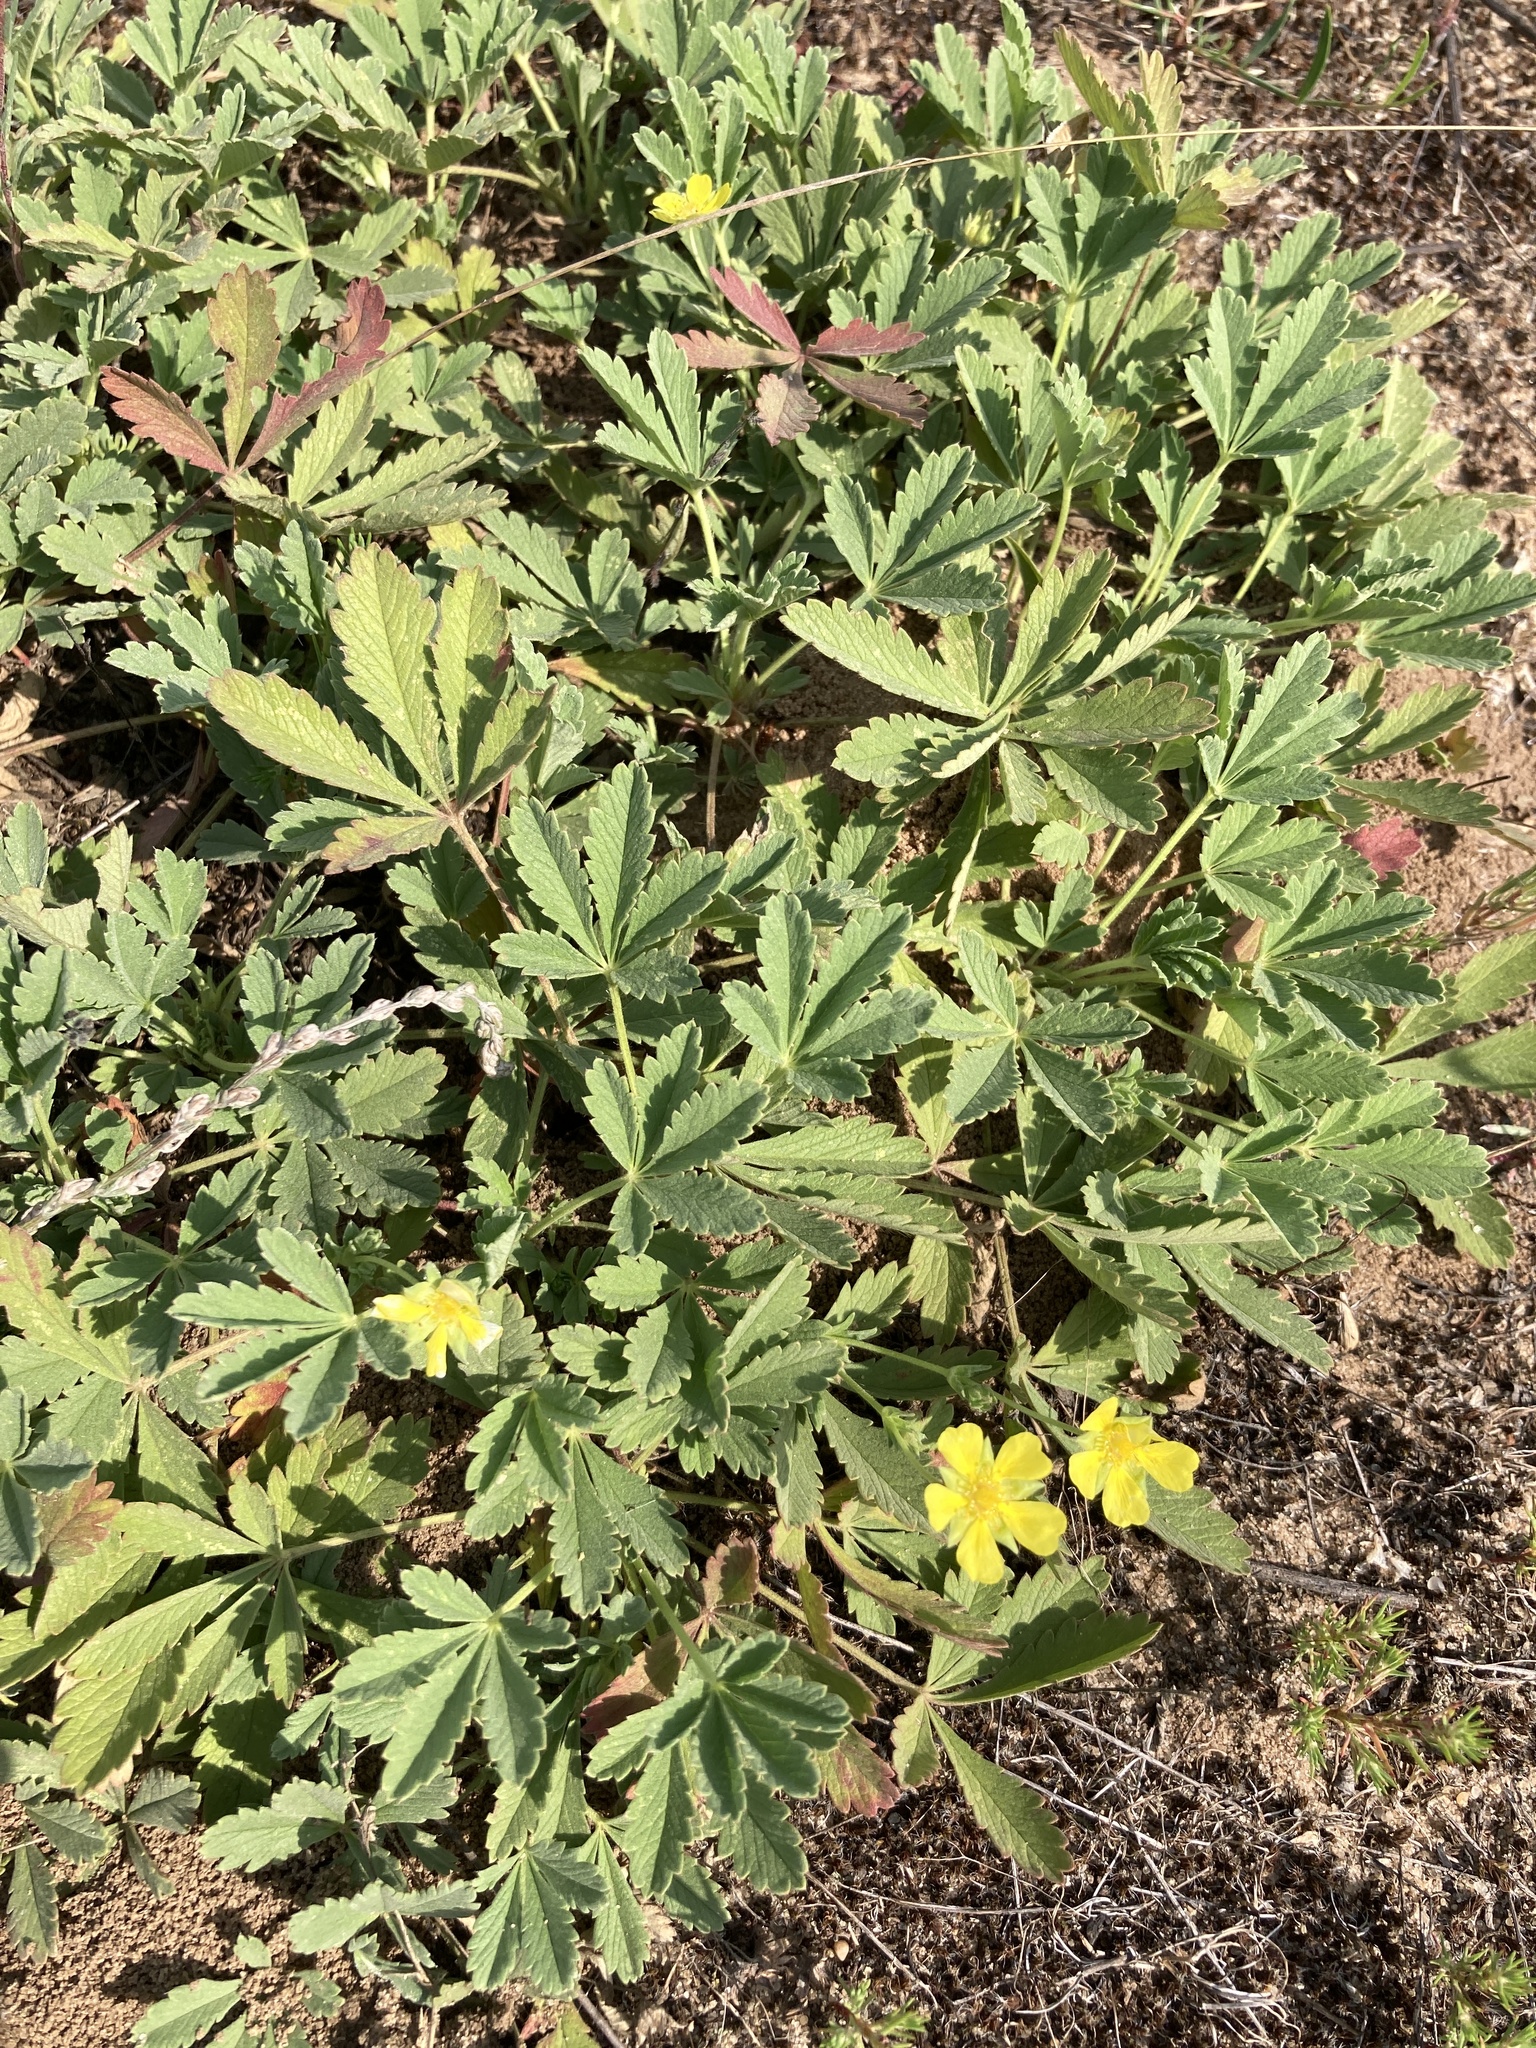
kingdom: Plantae
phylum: Tracheophyta
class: Magnoliopsida
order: Rosales
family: Rosaceae
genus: Potentilla
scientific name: Potentilla incana
